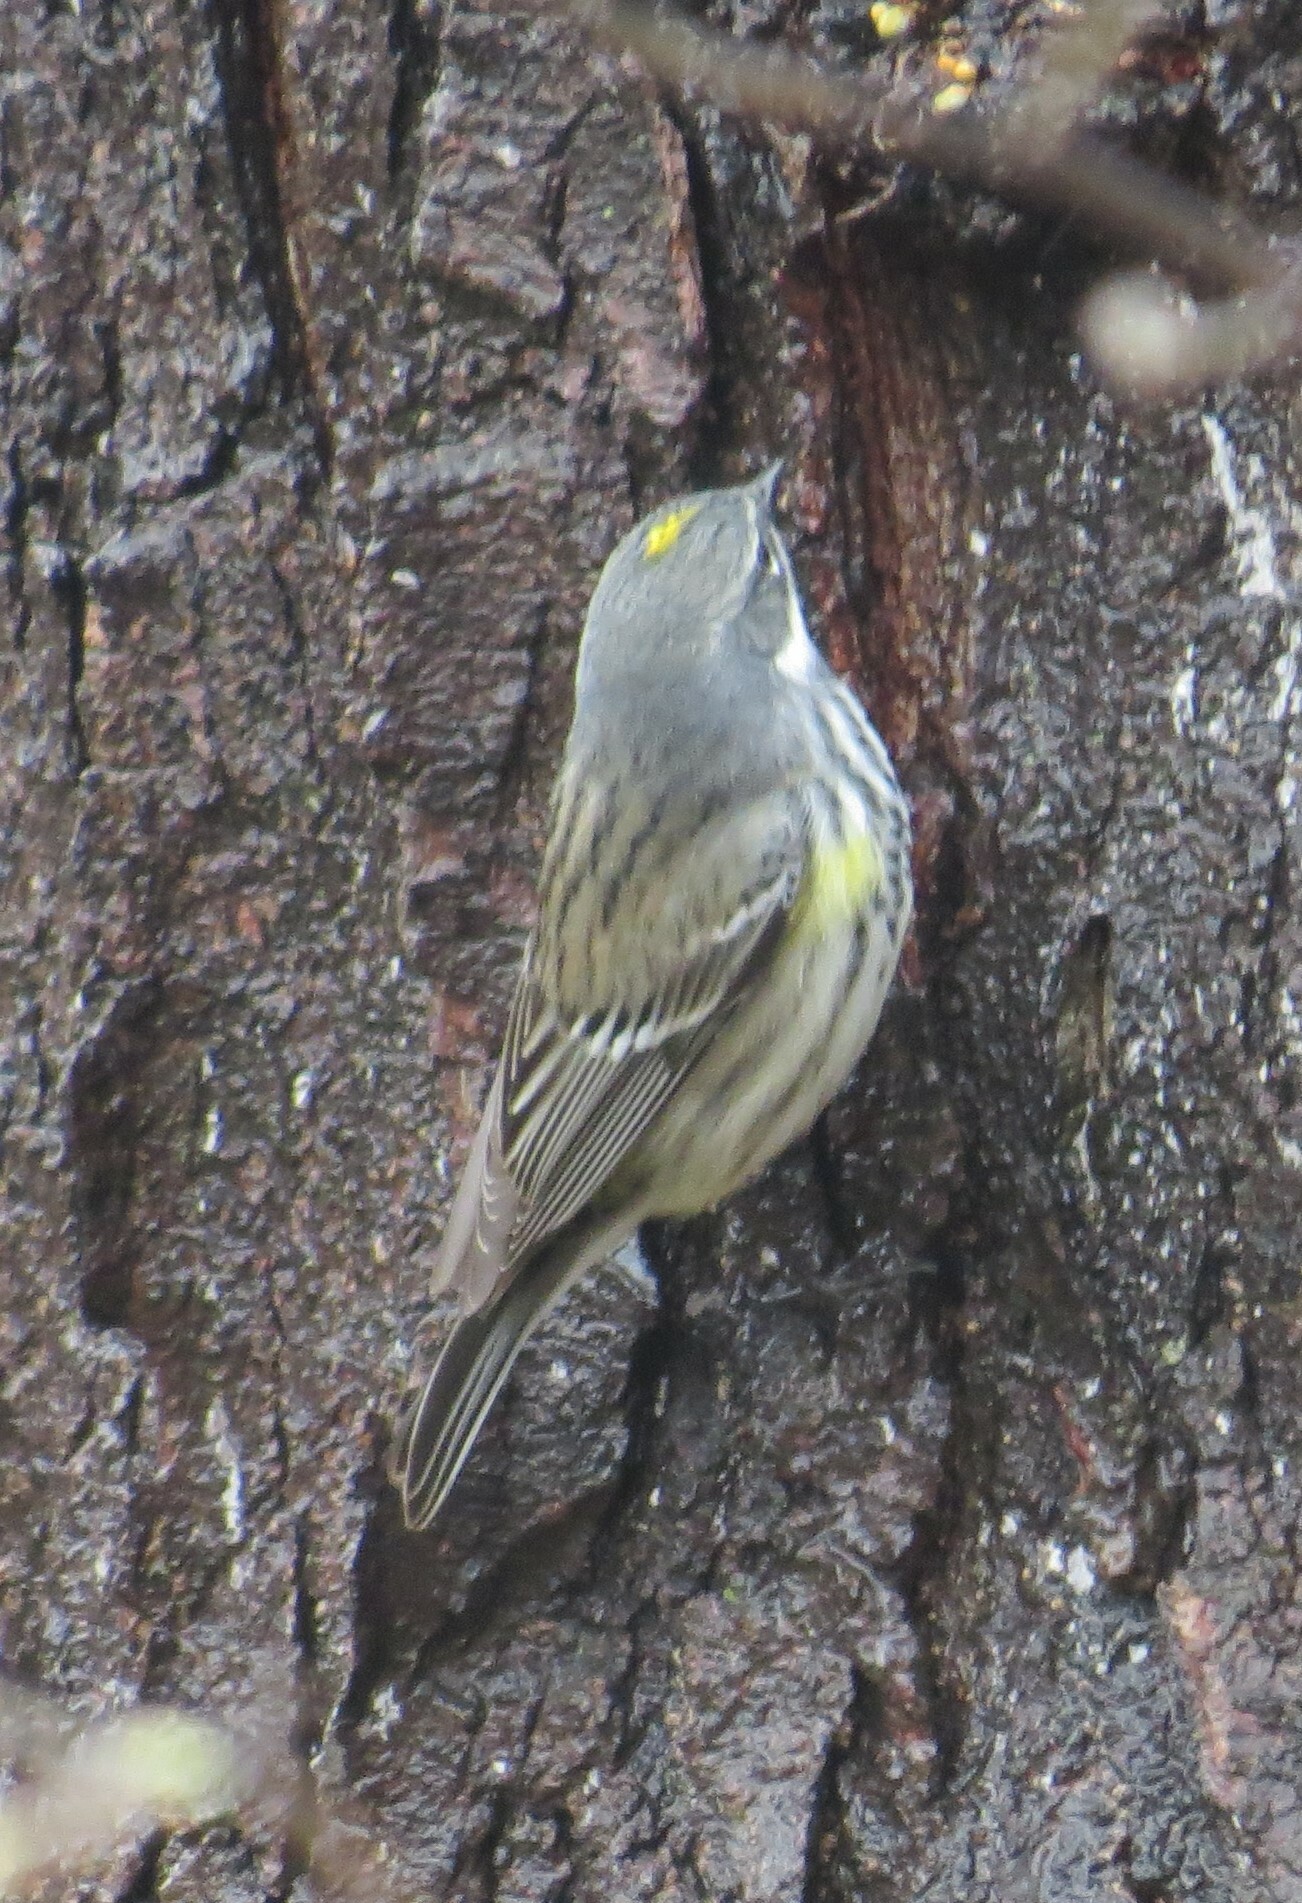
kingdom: Animalia
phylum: Chordata
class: Aves
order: Passeriformes
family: Parulidae
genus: Setophaga
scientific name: Setophaga coronata
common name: Myrtle warbler
